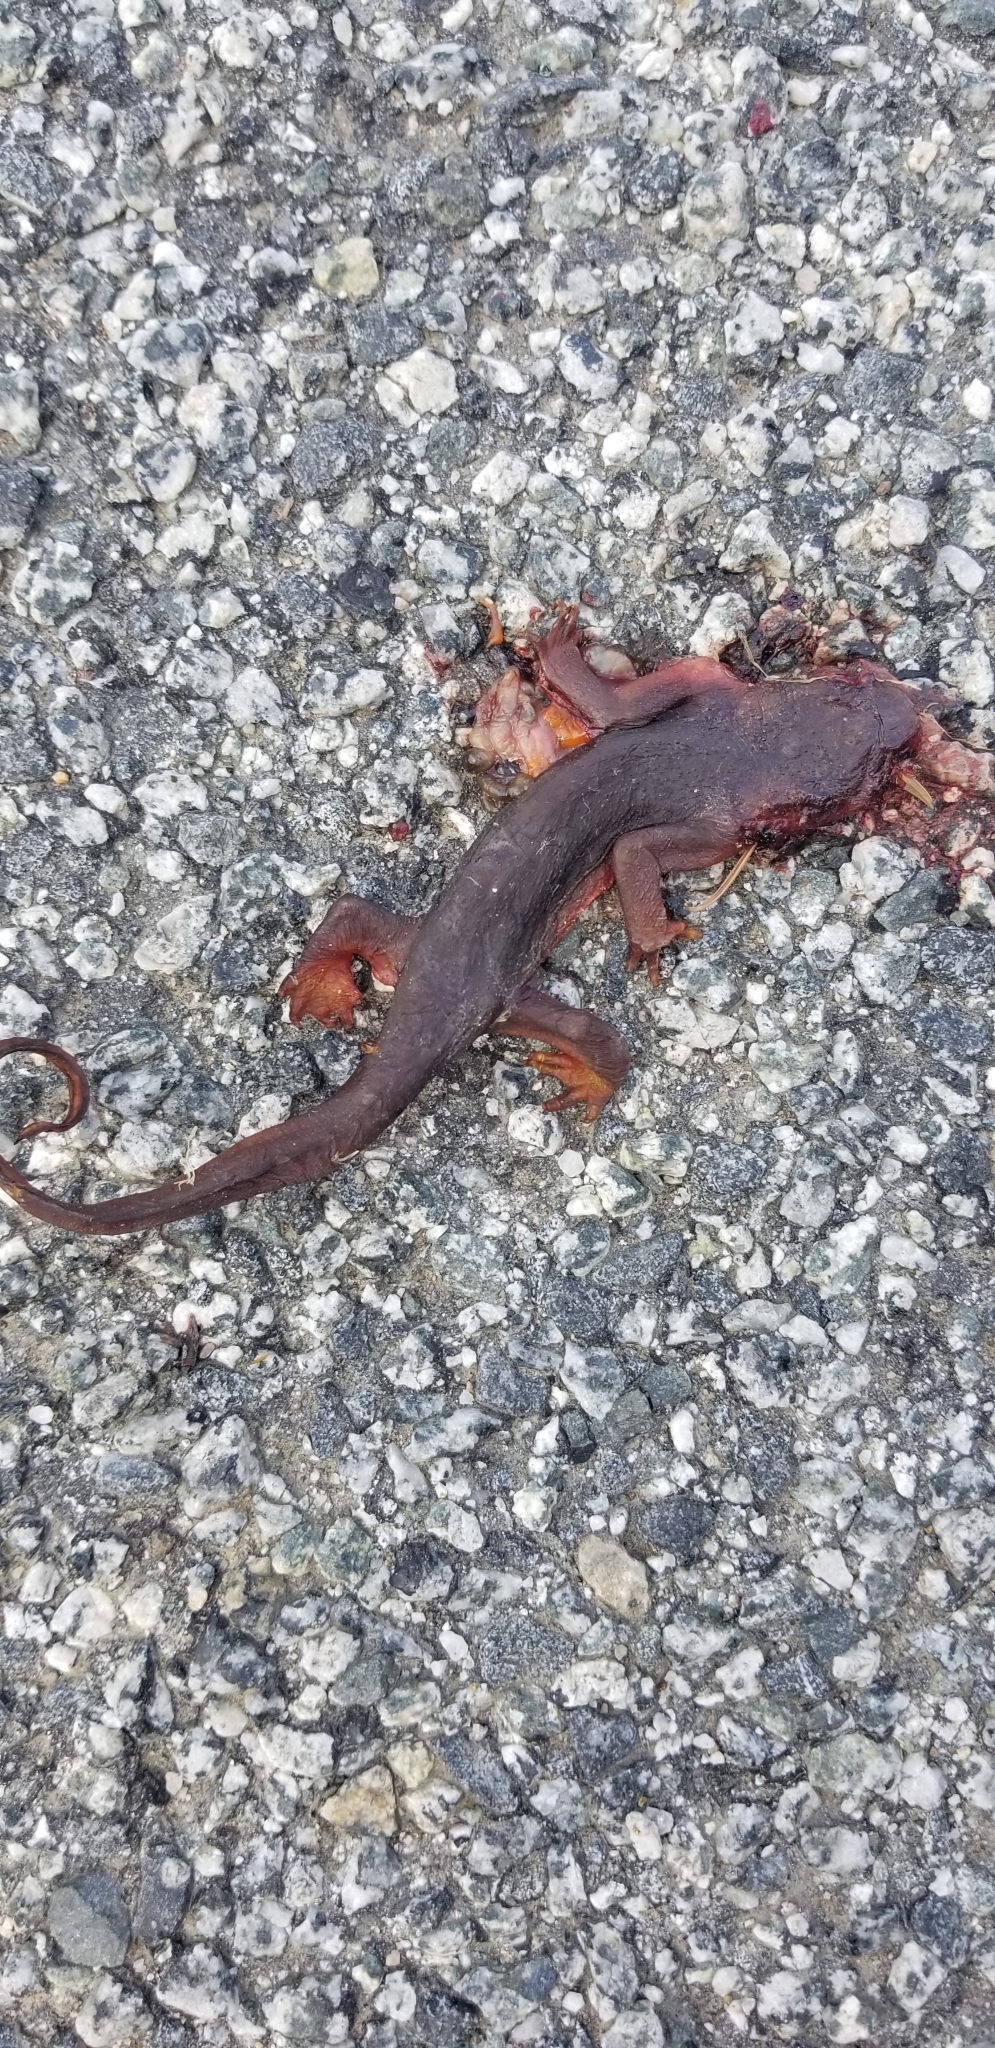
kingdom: Animalia
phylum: Chordata
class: Amphibia
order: Caudata
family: Salamandridae
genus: Taricha
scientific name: Taricha
